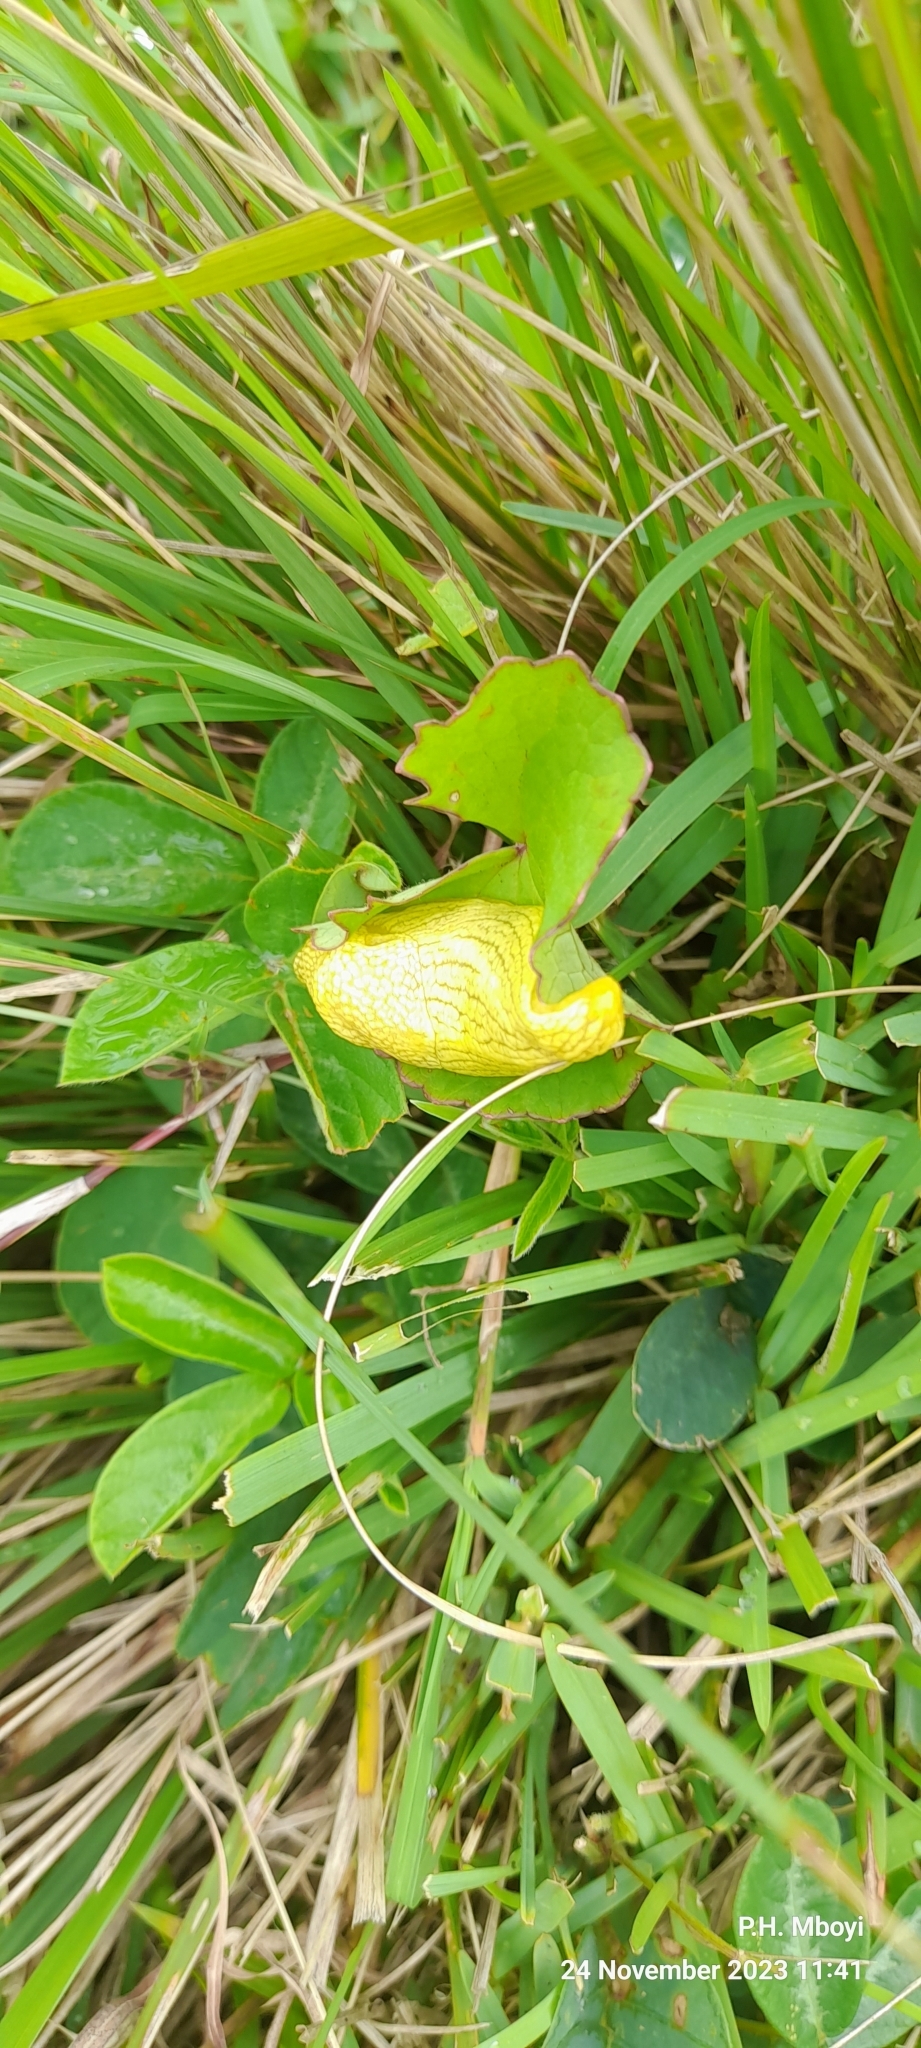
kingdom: Animalia
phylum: Mollusca
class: Gastropoda
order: Stylommatophora
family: Urocyclidae
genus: Elisolimax
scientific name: Elisolimax flavescens
